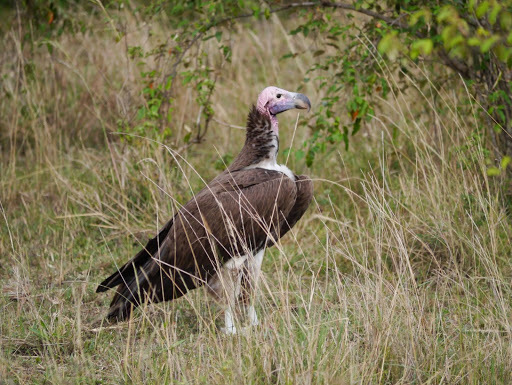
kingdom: Animalia
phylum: Chordata
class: Aves
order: Accipitriformes
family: Accipitridae
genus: Torgos
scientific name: Torgos tracheliotos
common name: Lappet-faced vulture
